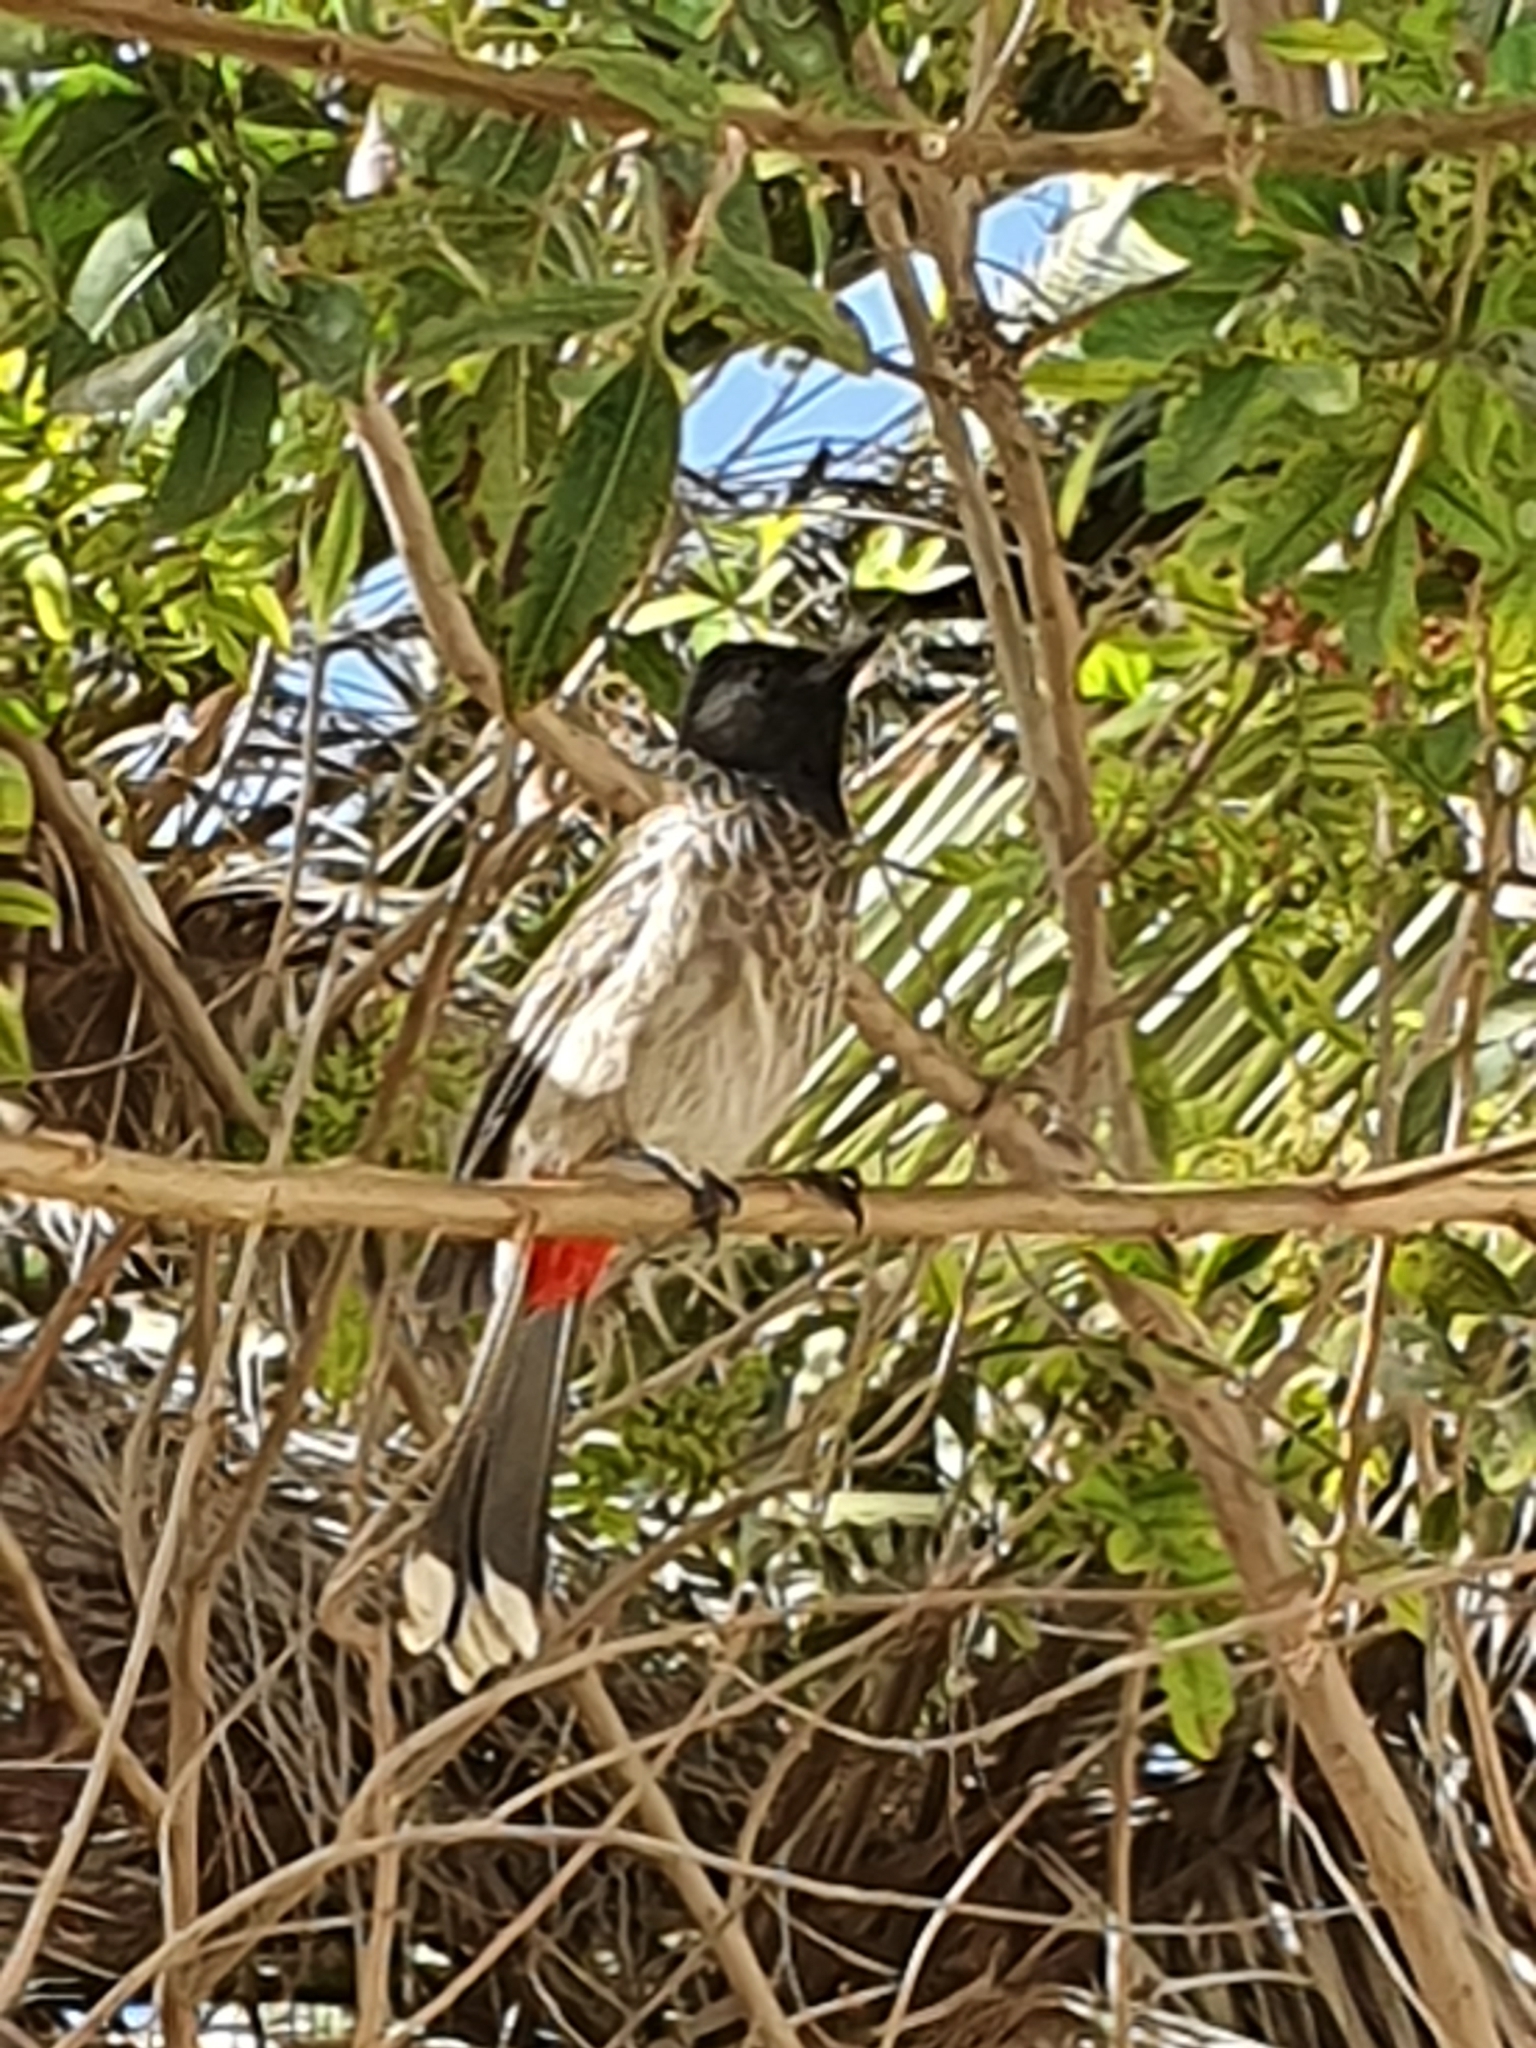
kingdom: Animalia
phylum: Chordata
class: Aves
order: Passeriformes
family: Pycnonotidae
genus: Pycnonotus
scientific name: Pycnonotus cafer
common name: Red-vented bulbul
